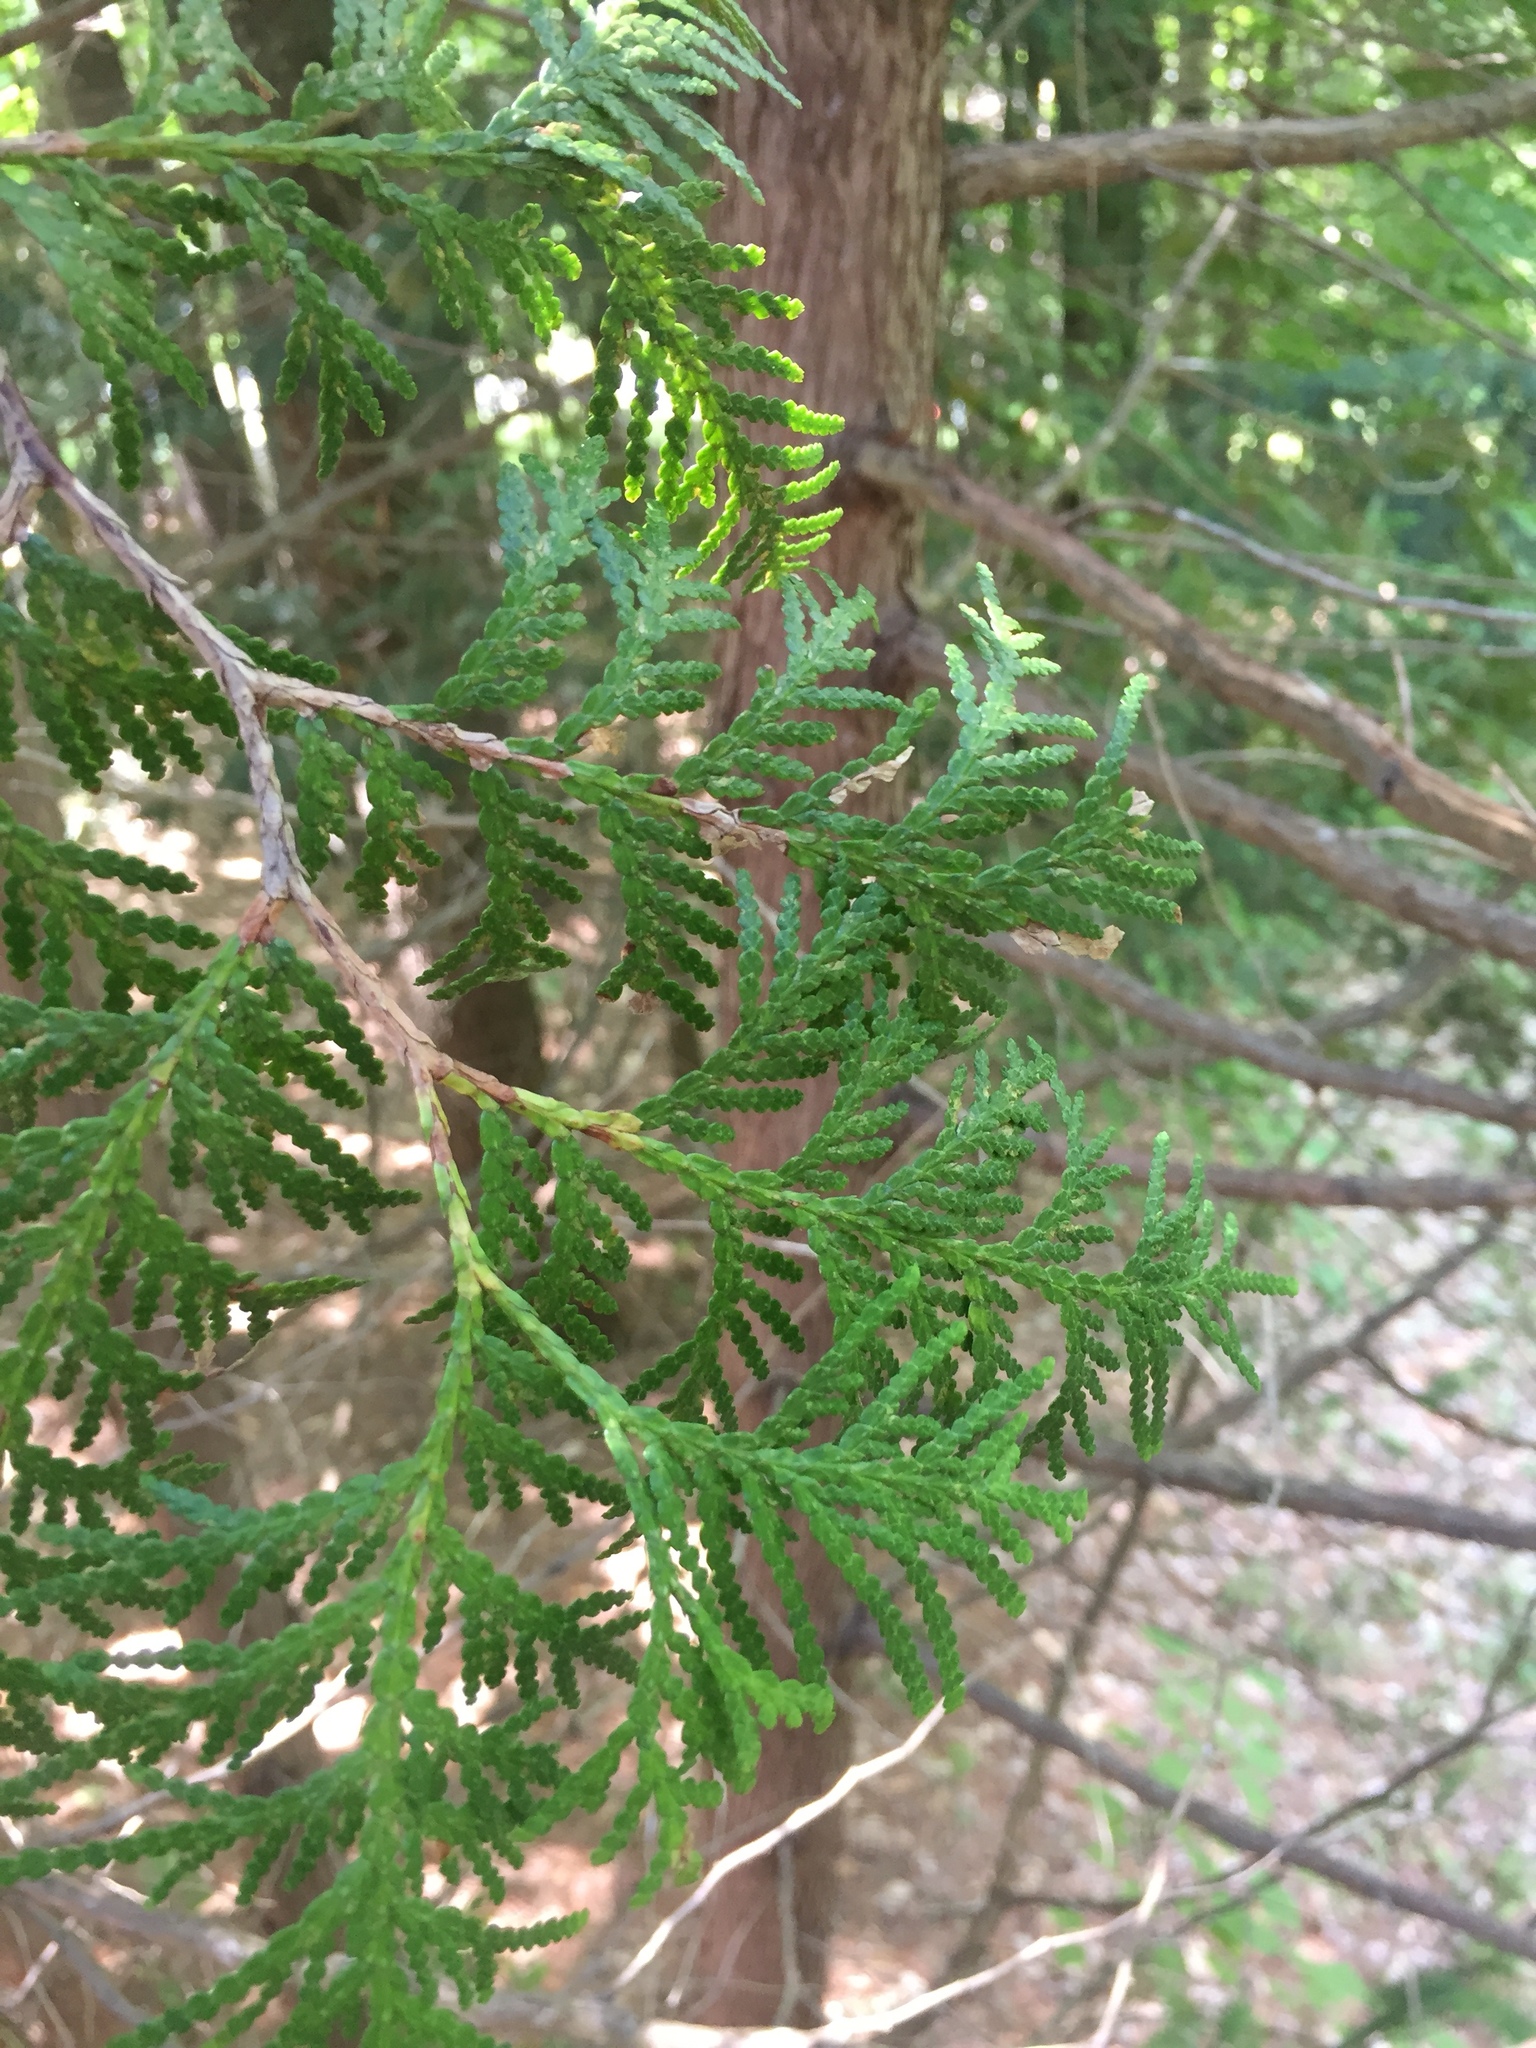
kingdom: Plantae
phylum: Tracheophyta
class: Pinopsida
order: Pinales
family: Cupressaceae
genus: Thuja
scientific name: Thuja occidentalis
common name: Northern white-cedar
